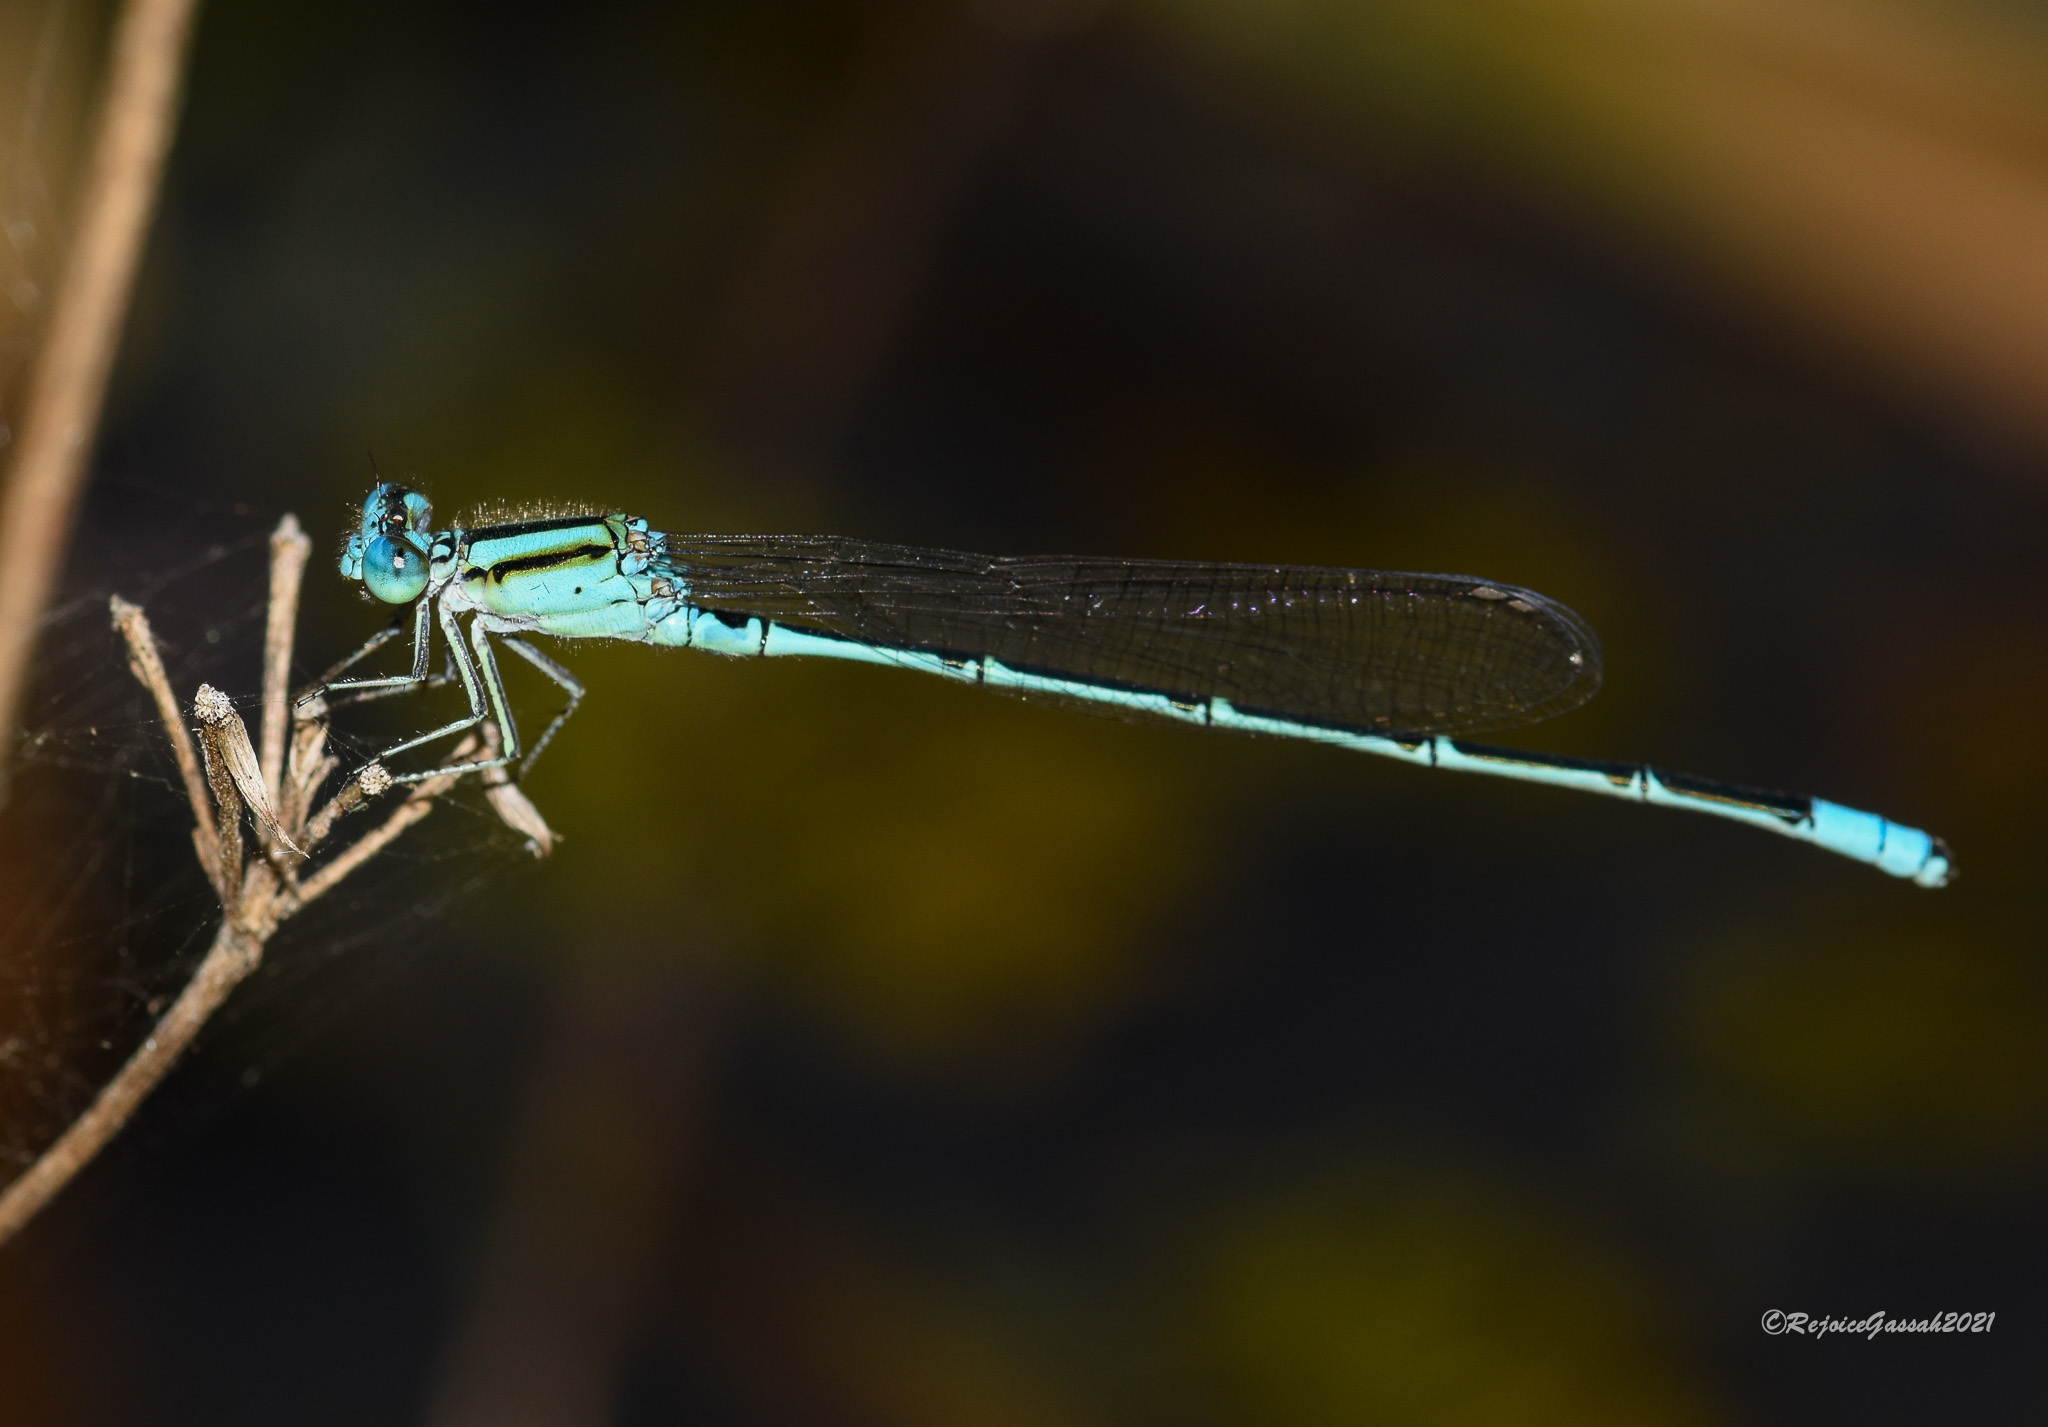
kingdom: Animalia
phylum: Arthropoda
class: Insecta
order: Odonata
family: Coenagrionidae
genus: Pseudagrion
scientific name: Pseudagrion australasiae
